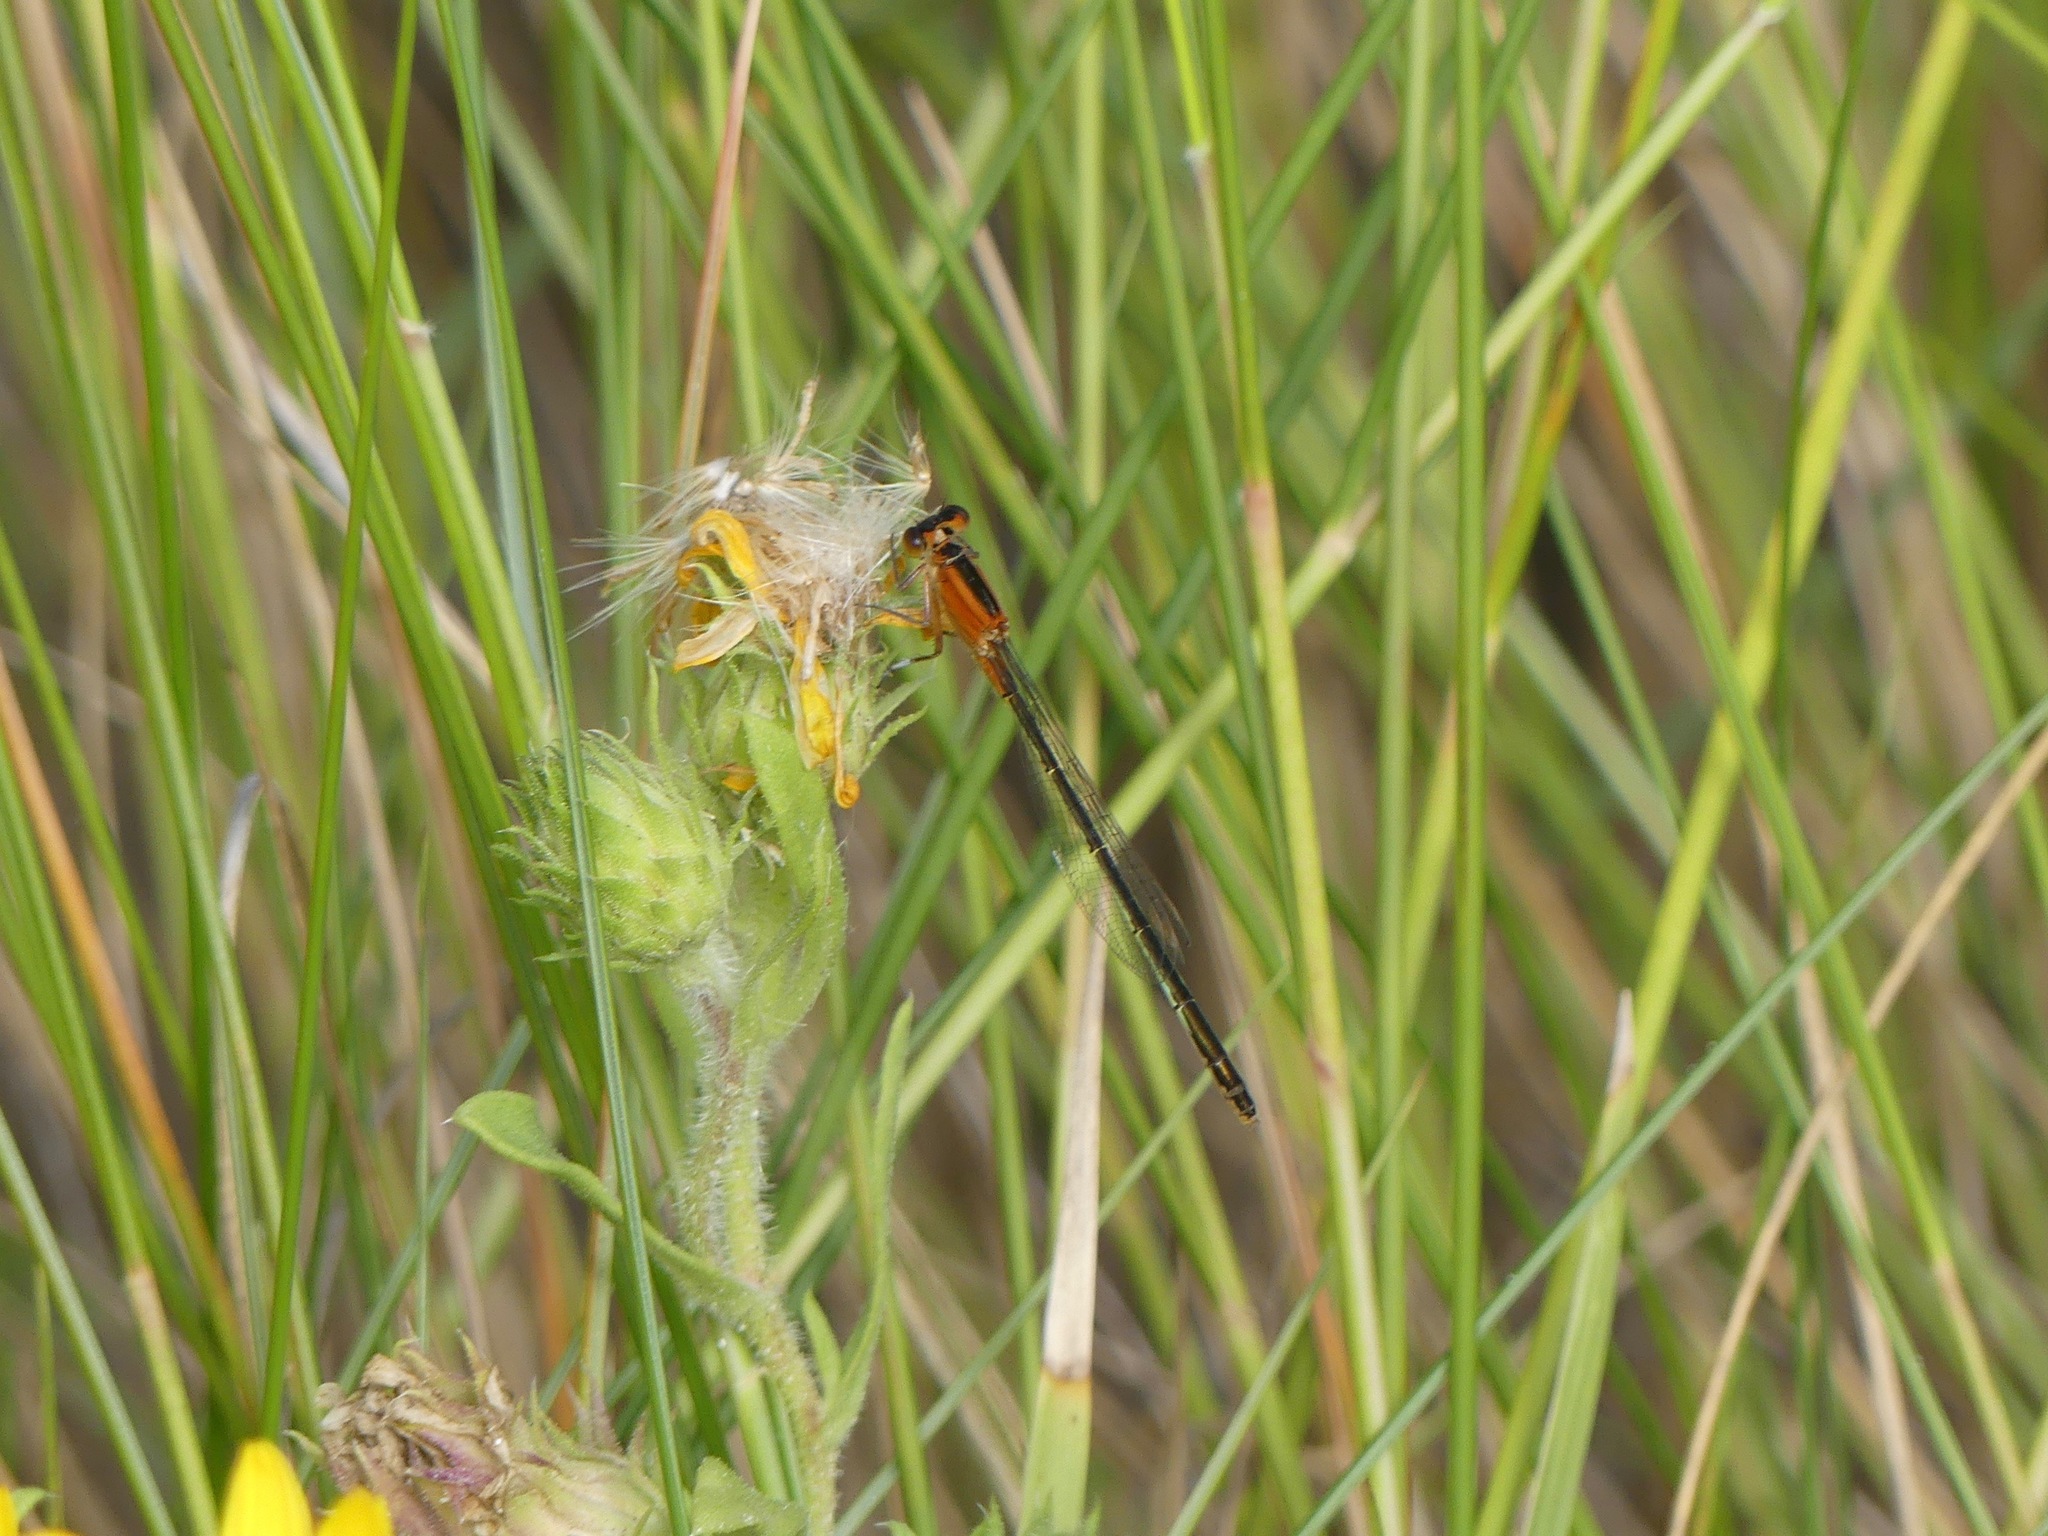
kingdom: Animalia
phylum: Arthropoda
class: Insecta
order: Odonata
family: Coenagrionidae
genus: Ischnura
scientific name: Ischnura ramburii
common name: Rambur's forktail
